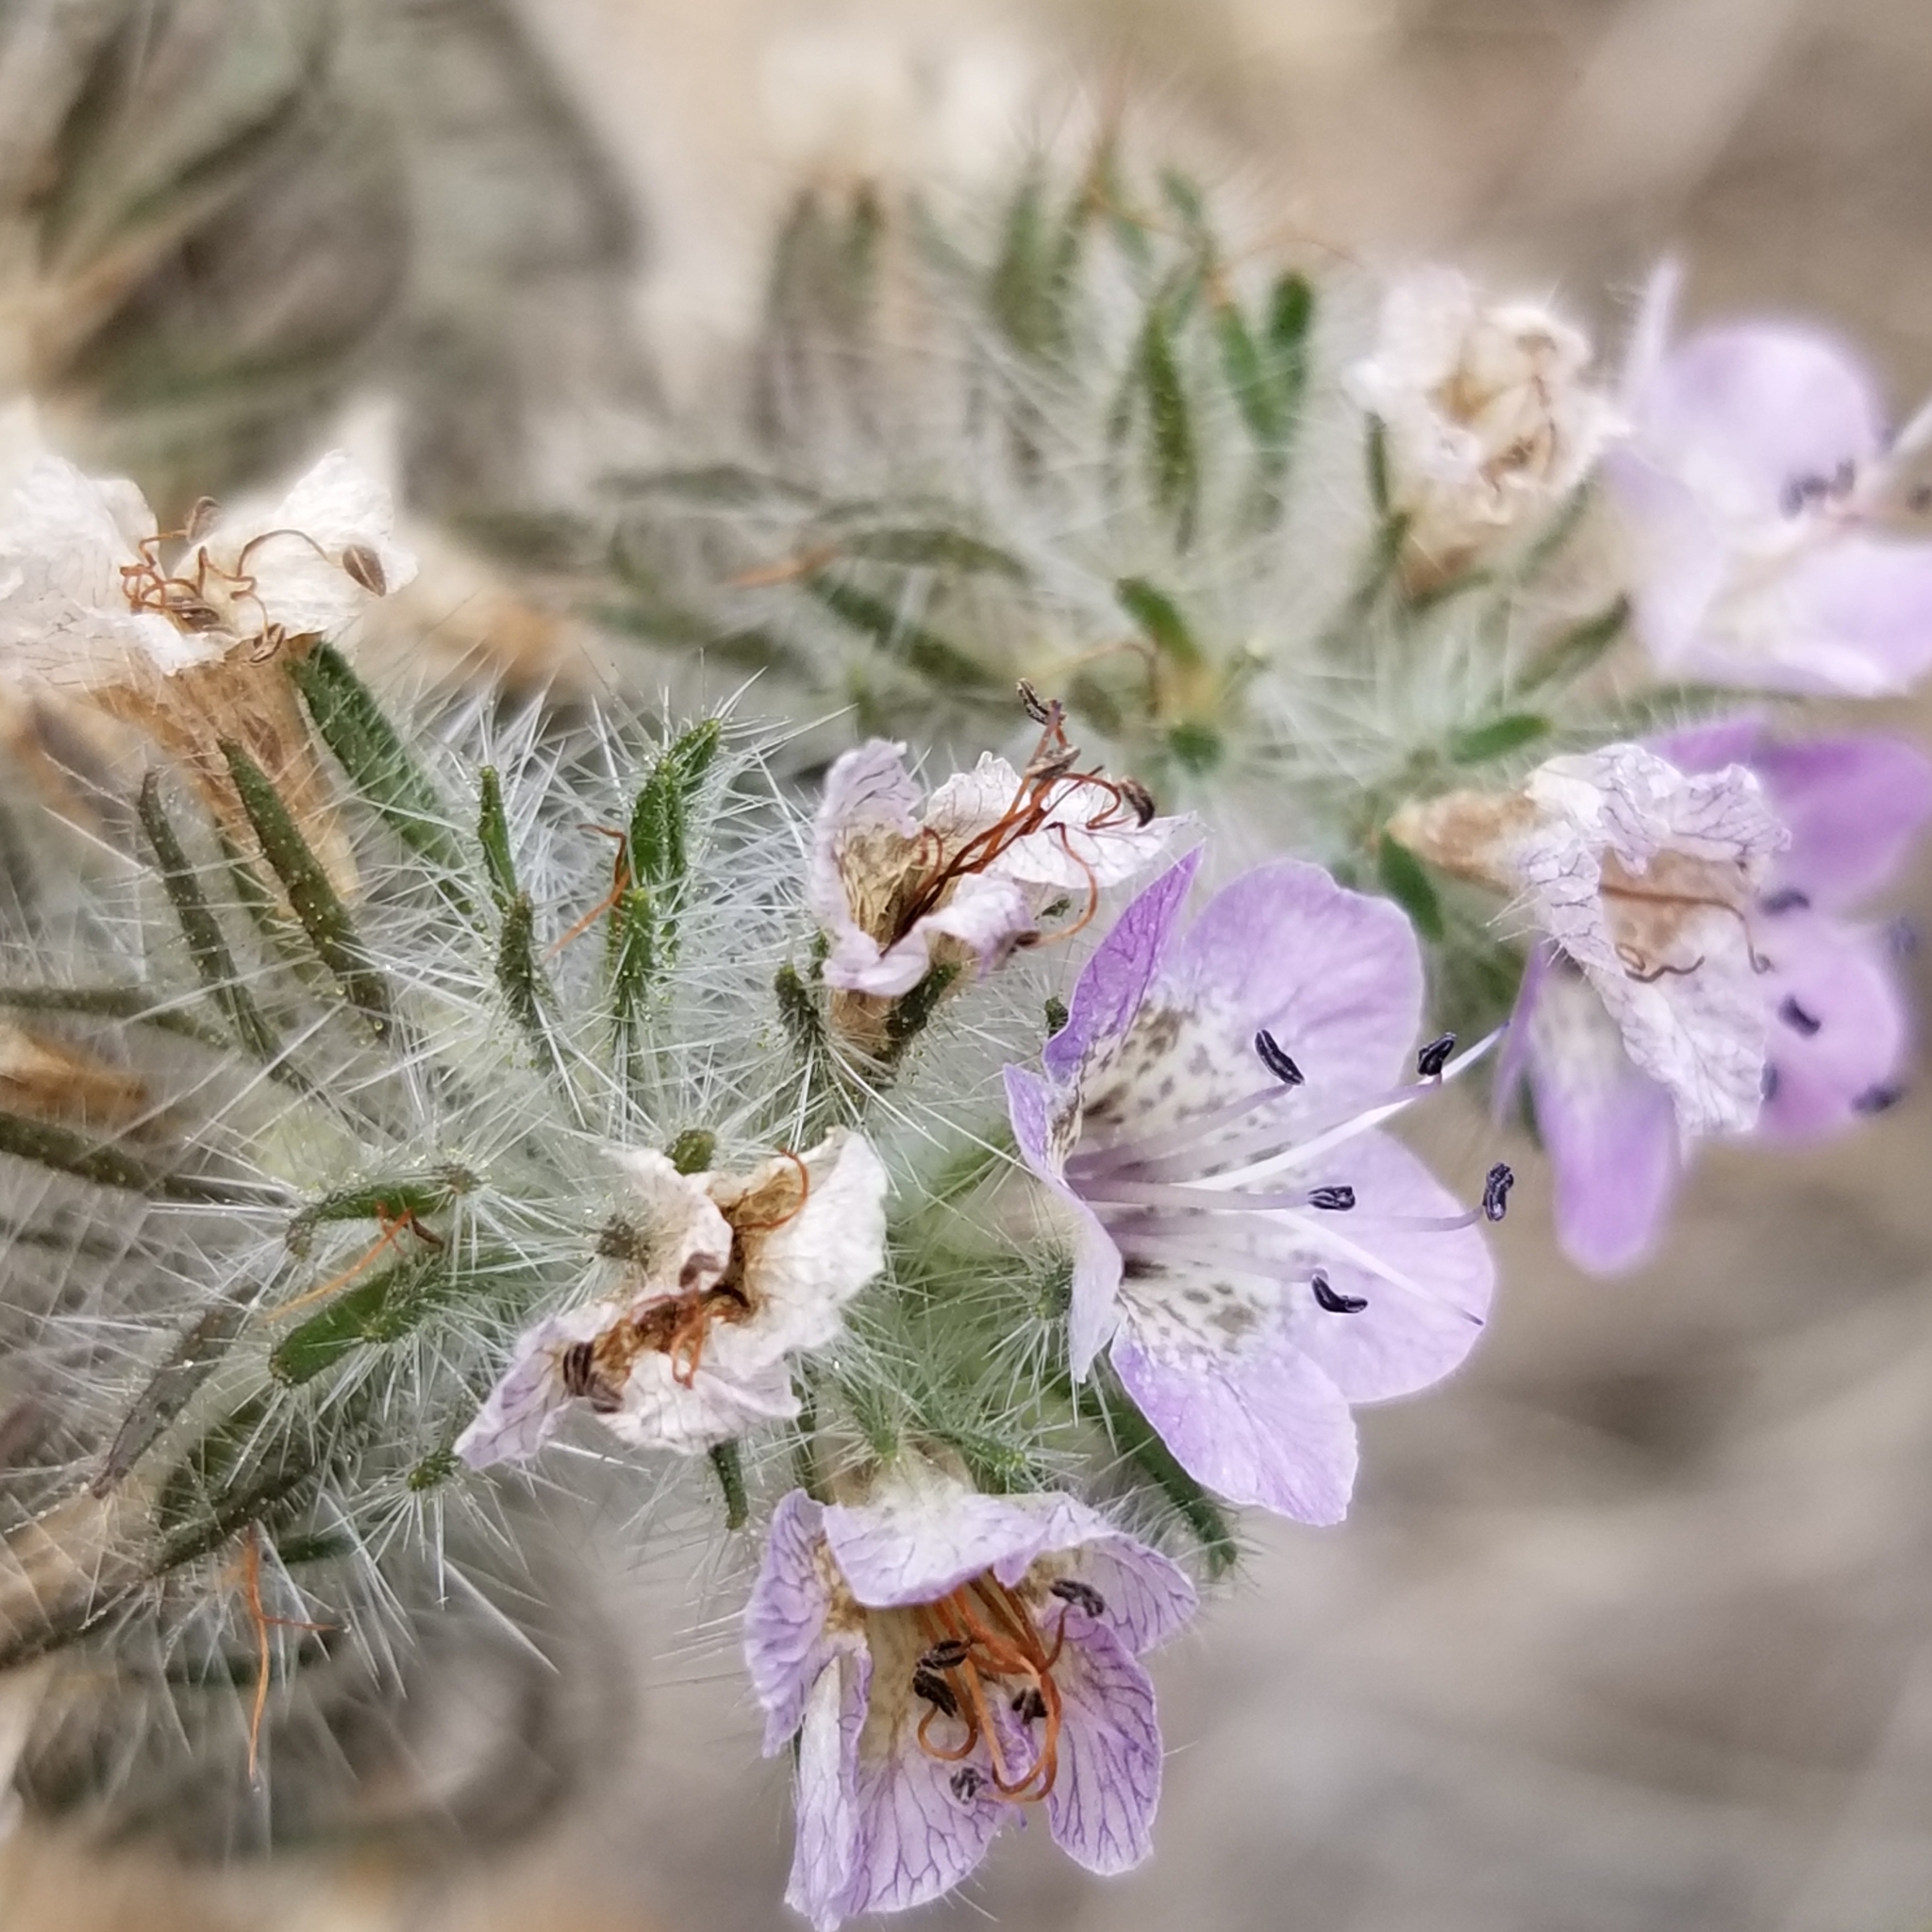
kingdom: Plantae
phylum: Tracheophyta
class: Magnoliopsida
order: Boraginales
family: Hydrophyllaceae
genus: Phacelia
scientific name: Phacelia cicutaria
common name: Caterpillar phacelia
